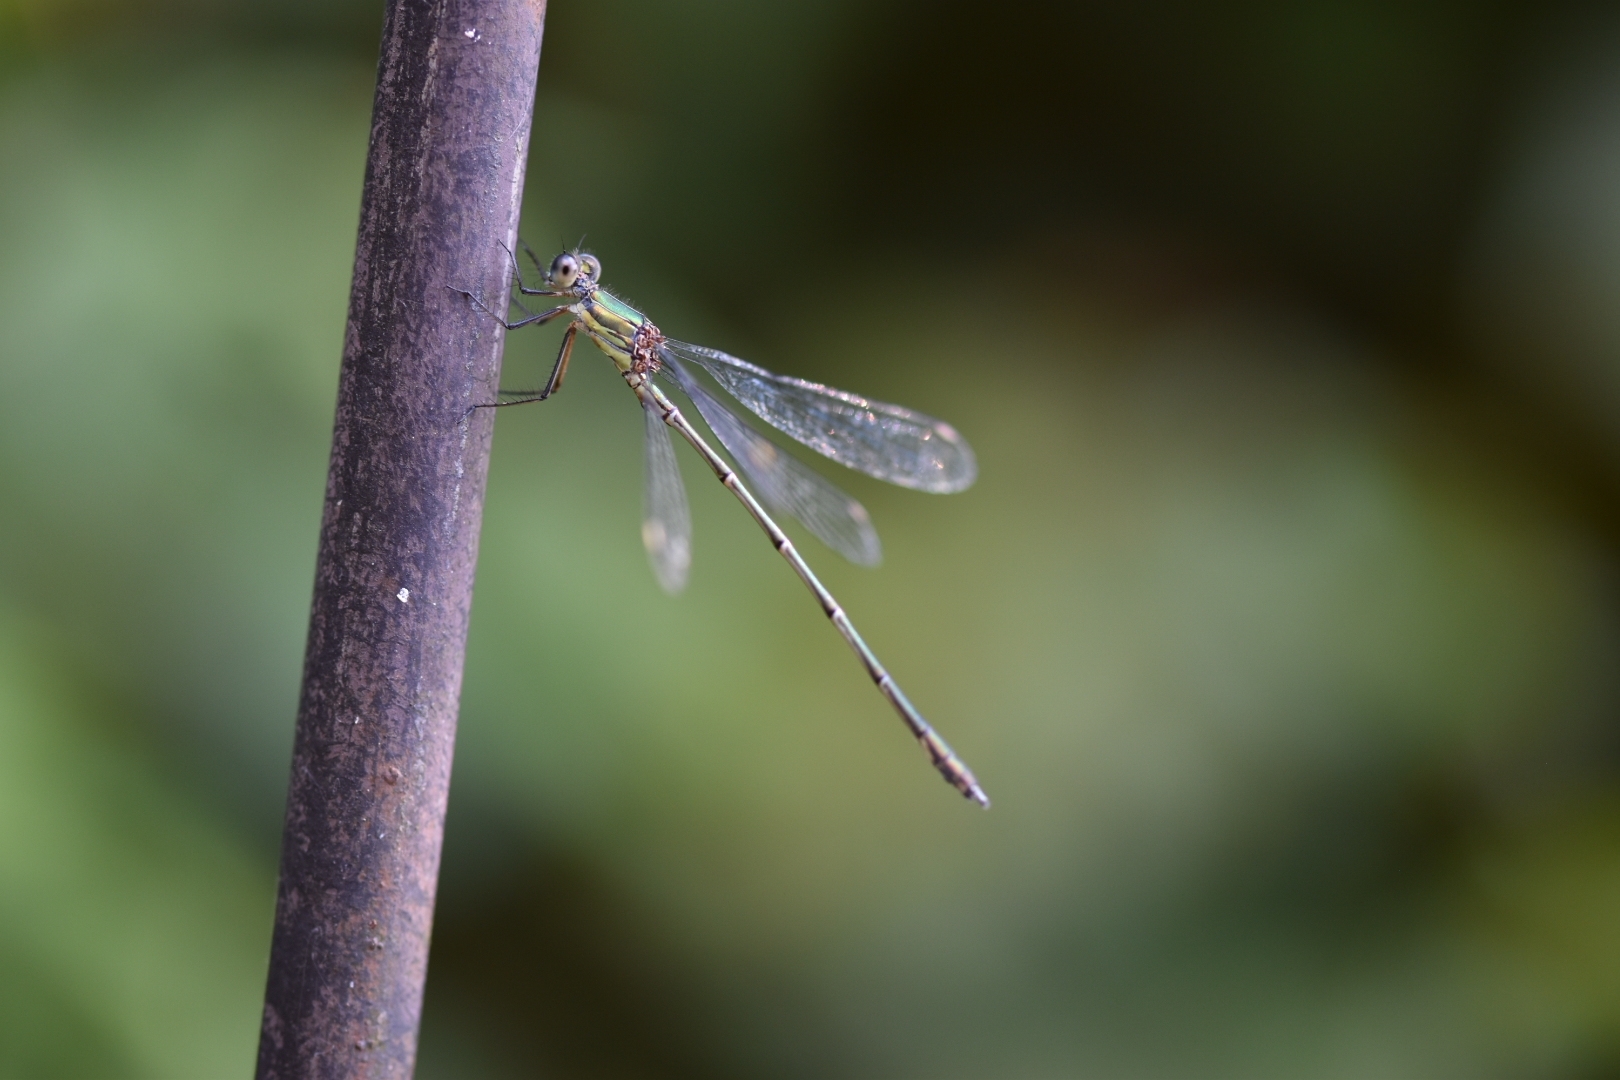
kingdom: Animalia
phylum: Arthropoda
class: Insecta
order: Odonata
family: Lestidae
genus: Chalcolestes
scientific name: Chalcolestes viridis
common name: Green emerald damselfly
